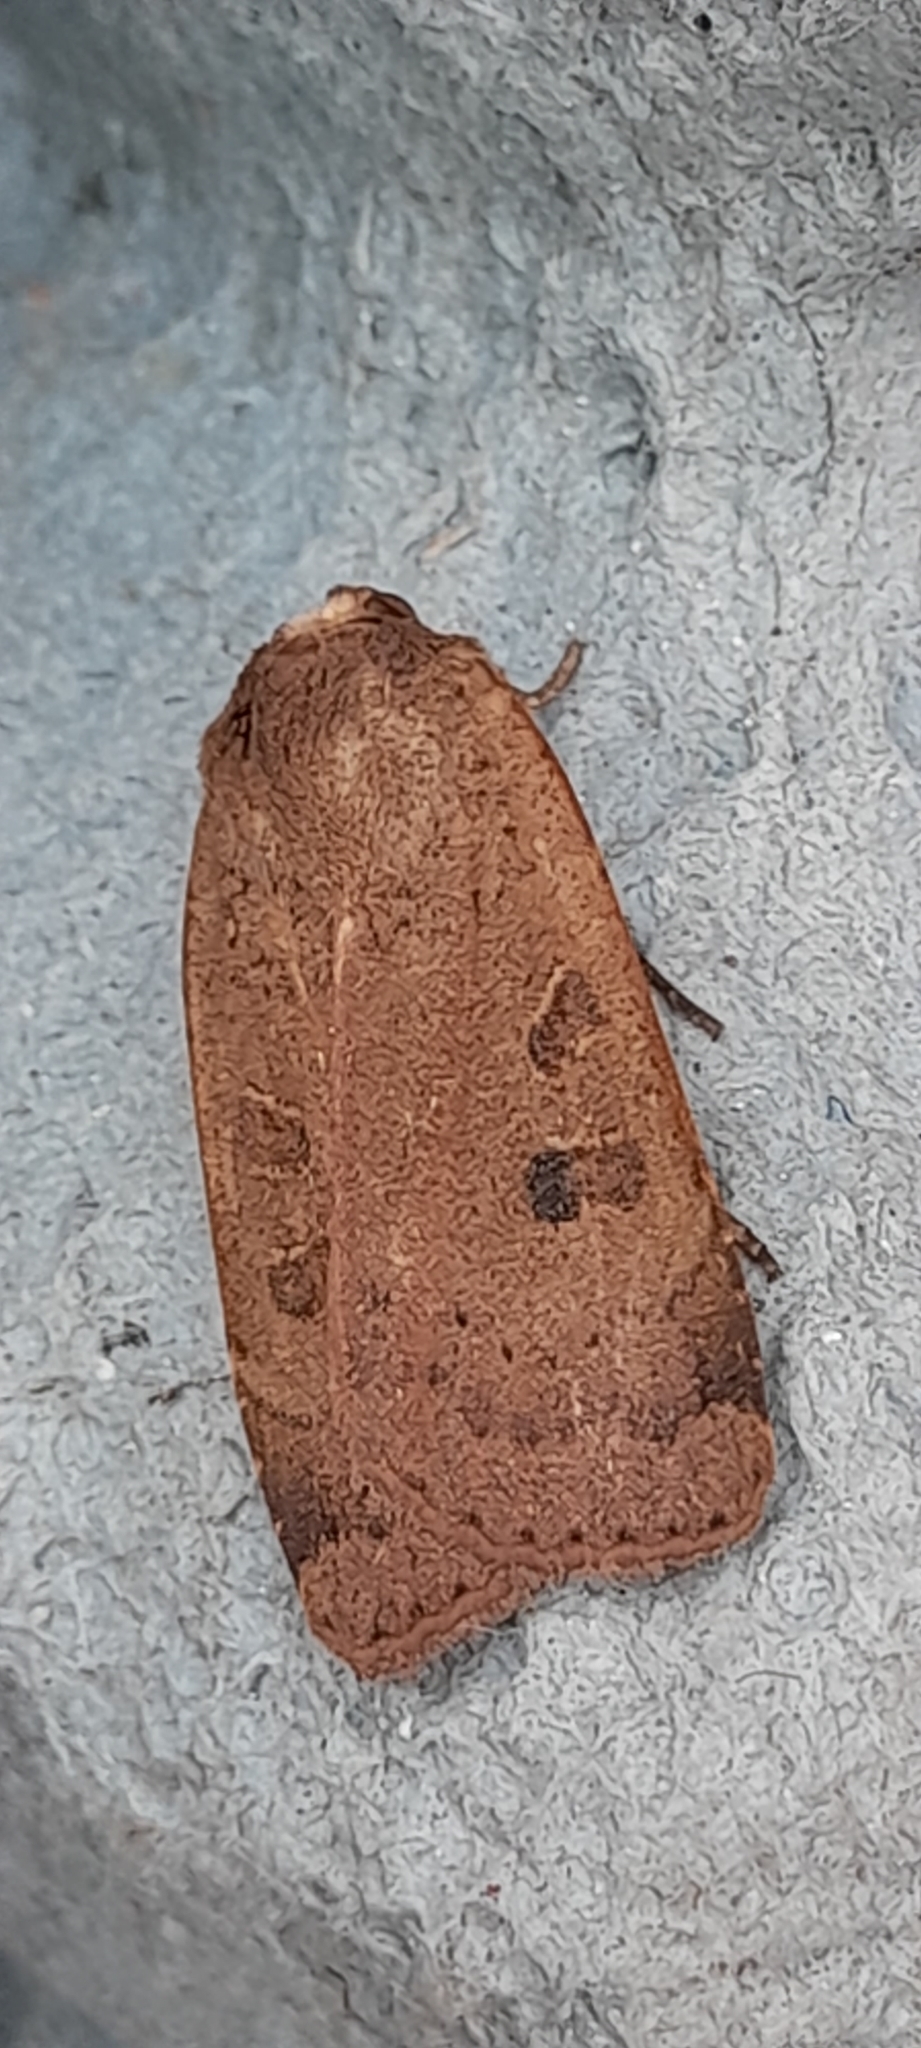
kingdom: Animalia
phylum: Arthropoda
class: Insecta
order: Lepidoptera
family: Noctuidae
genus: Noctua
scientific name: Noctua comes
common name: Lesser yellow underwing
